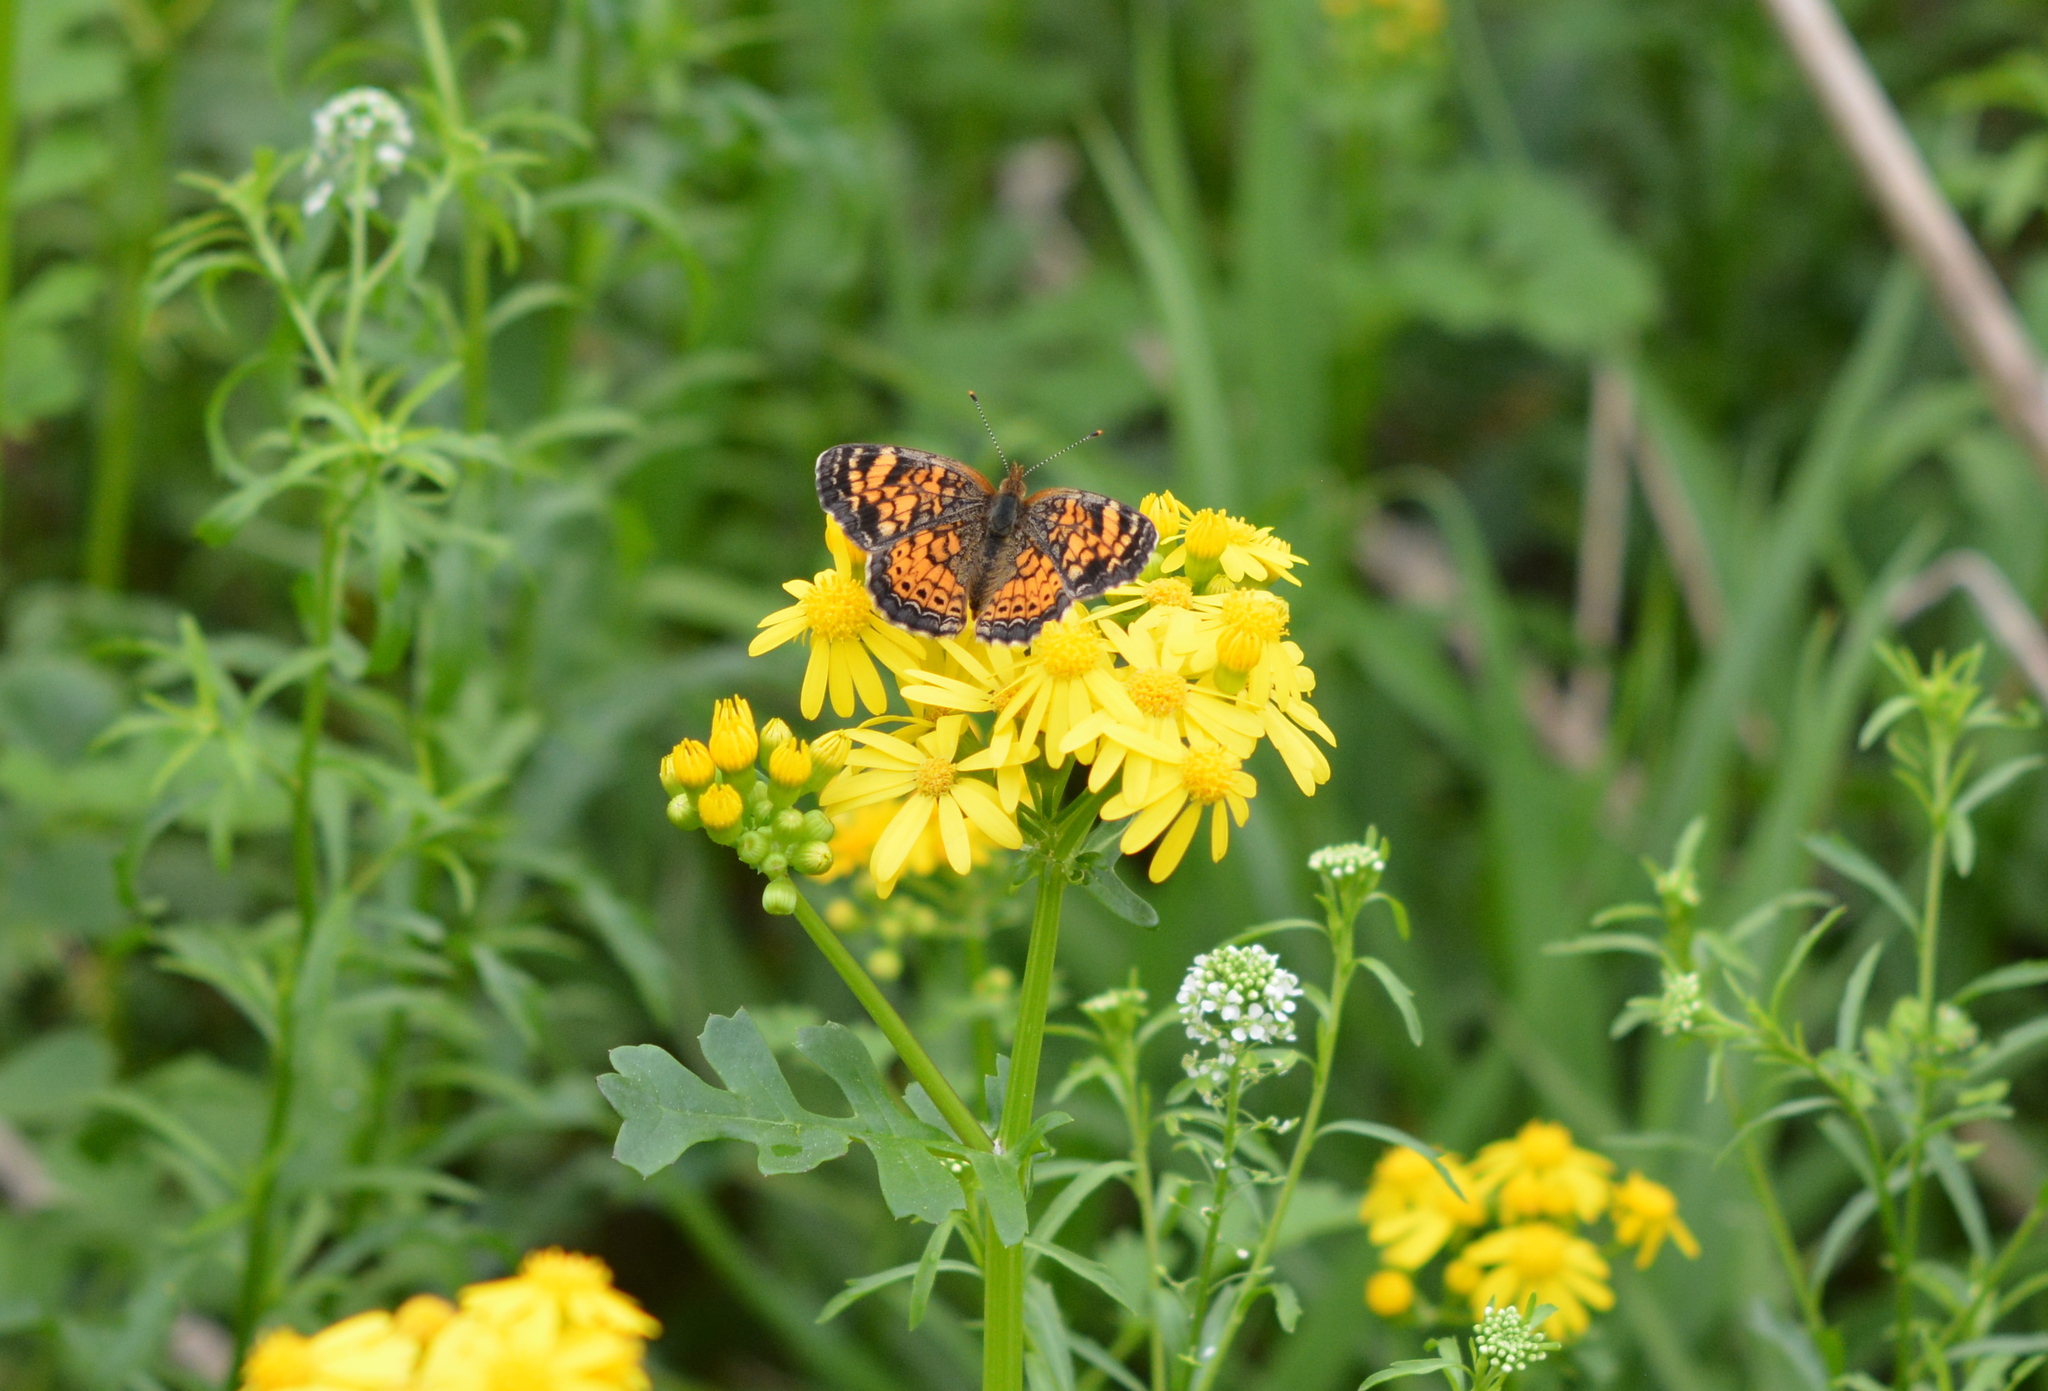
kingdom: Animalia
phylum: Arthropoda
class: Insecta
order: Lepidoptera
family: Nymphalidae
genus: Phyciodes
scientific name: Phyciodes tharos
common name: Pearl crescent
